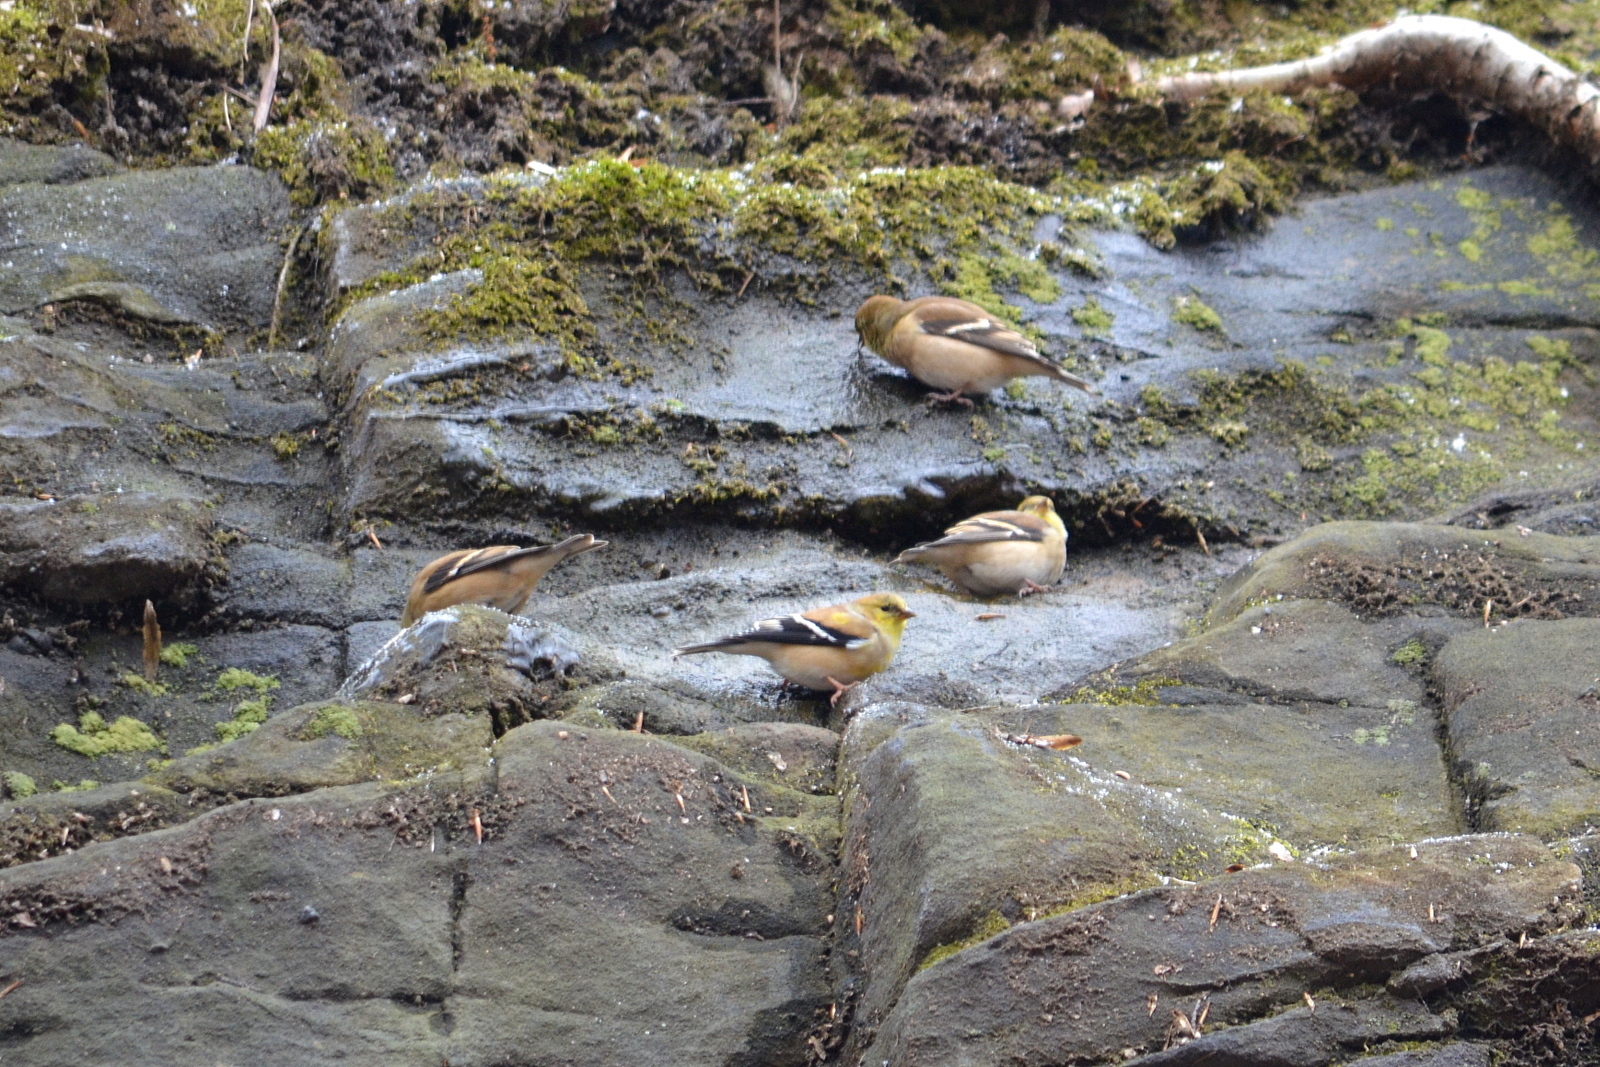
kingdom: Animalia
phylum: Chordata
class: Aves
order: Passeriformes
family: Fringillidae
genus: Spinus
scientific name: Spinus tristis
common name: American goldfinch
